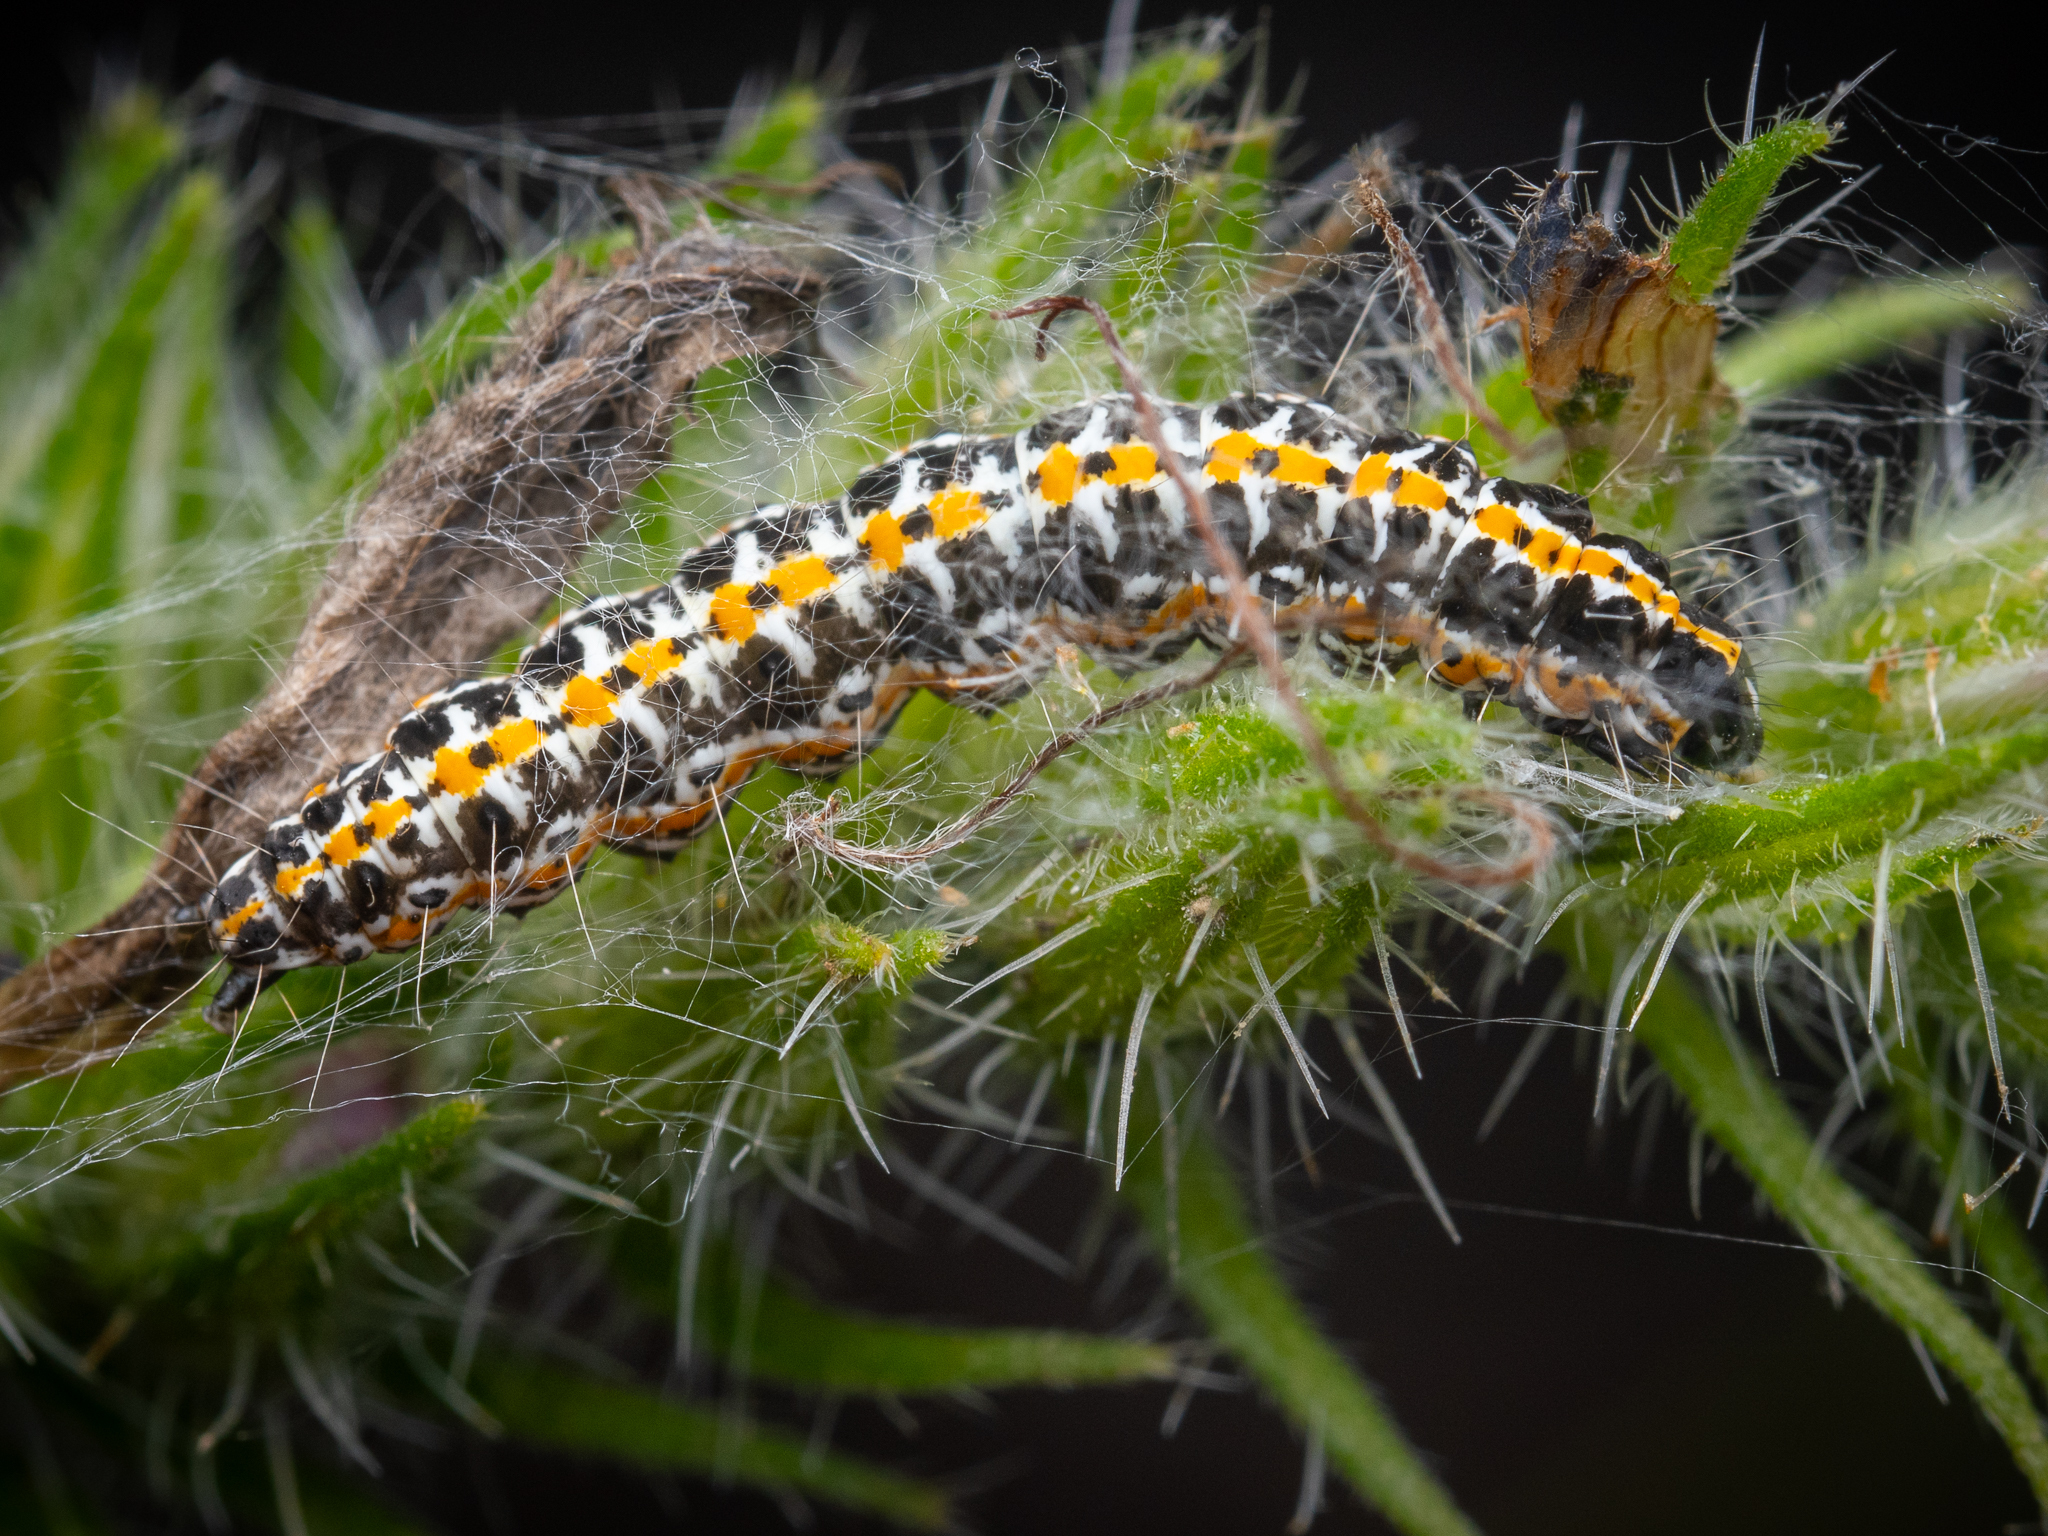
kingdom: Animalia
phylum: Arthropoda
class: Insecta
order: Lepidoptera
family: Ethmiidae
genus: Ethmia
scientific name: Ethmia bipunctella
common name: Bordered ermel
